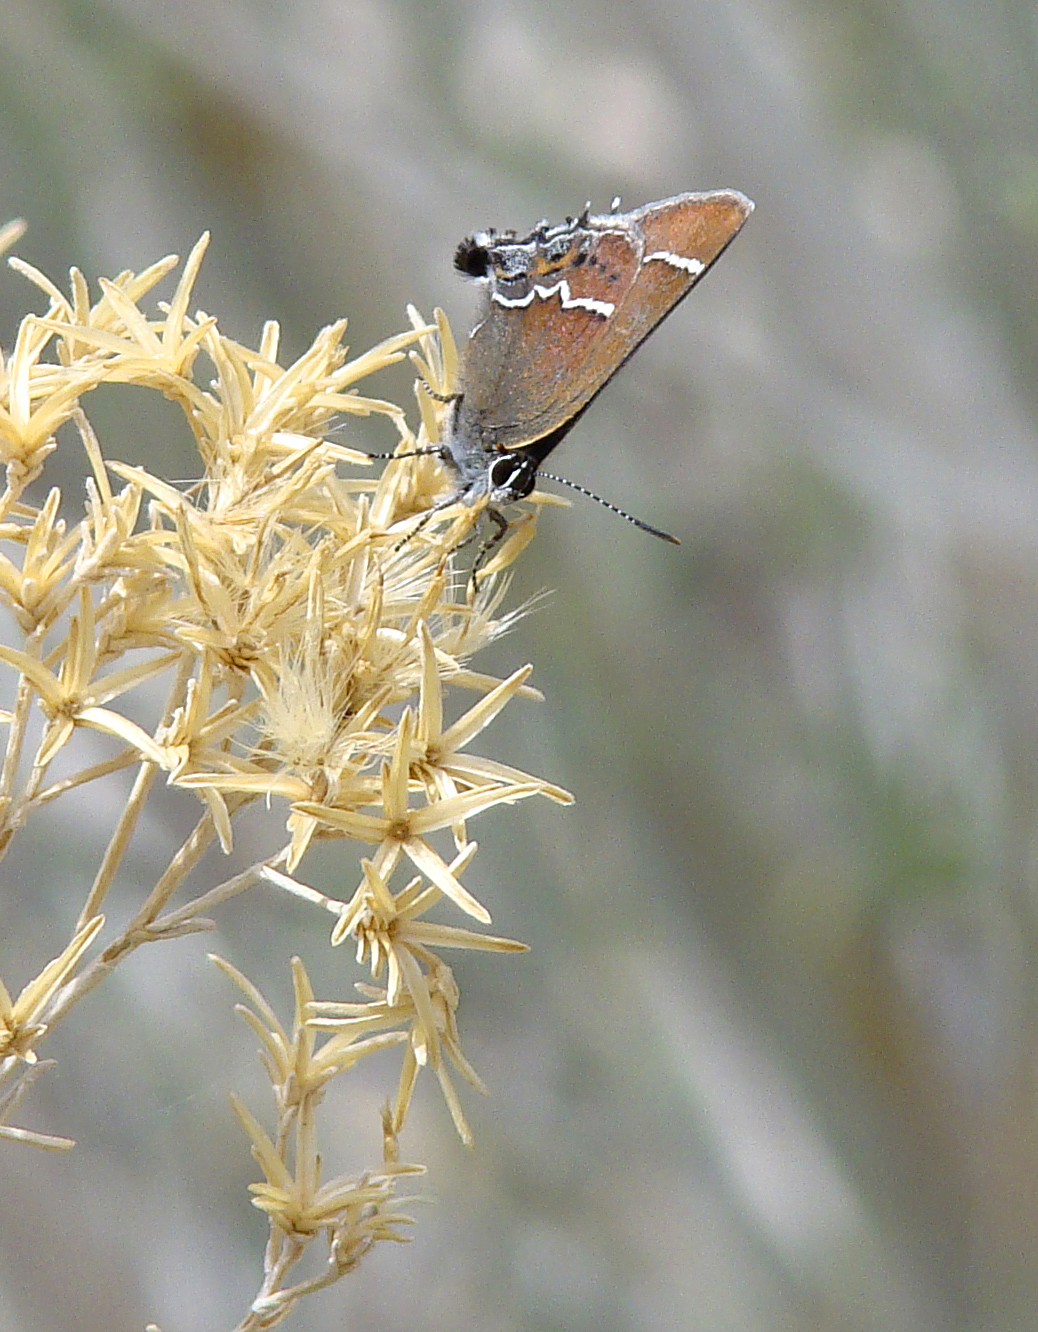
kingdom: Animalia
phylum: Arthropoda
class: Insecta
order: Lepidoptera
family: Lycaenidae
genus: Mitoura
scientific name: Mitoura spinetorum
